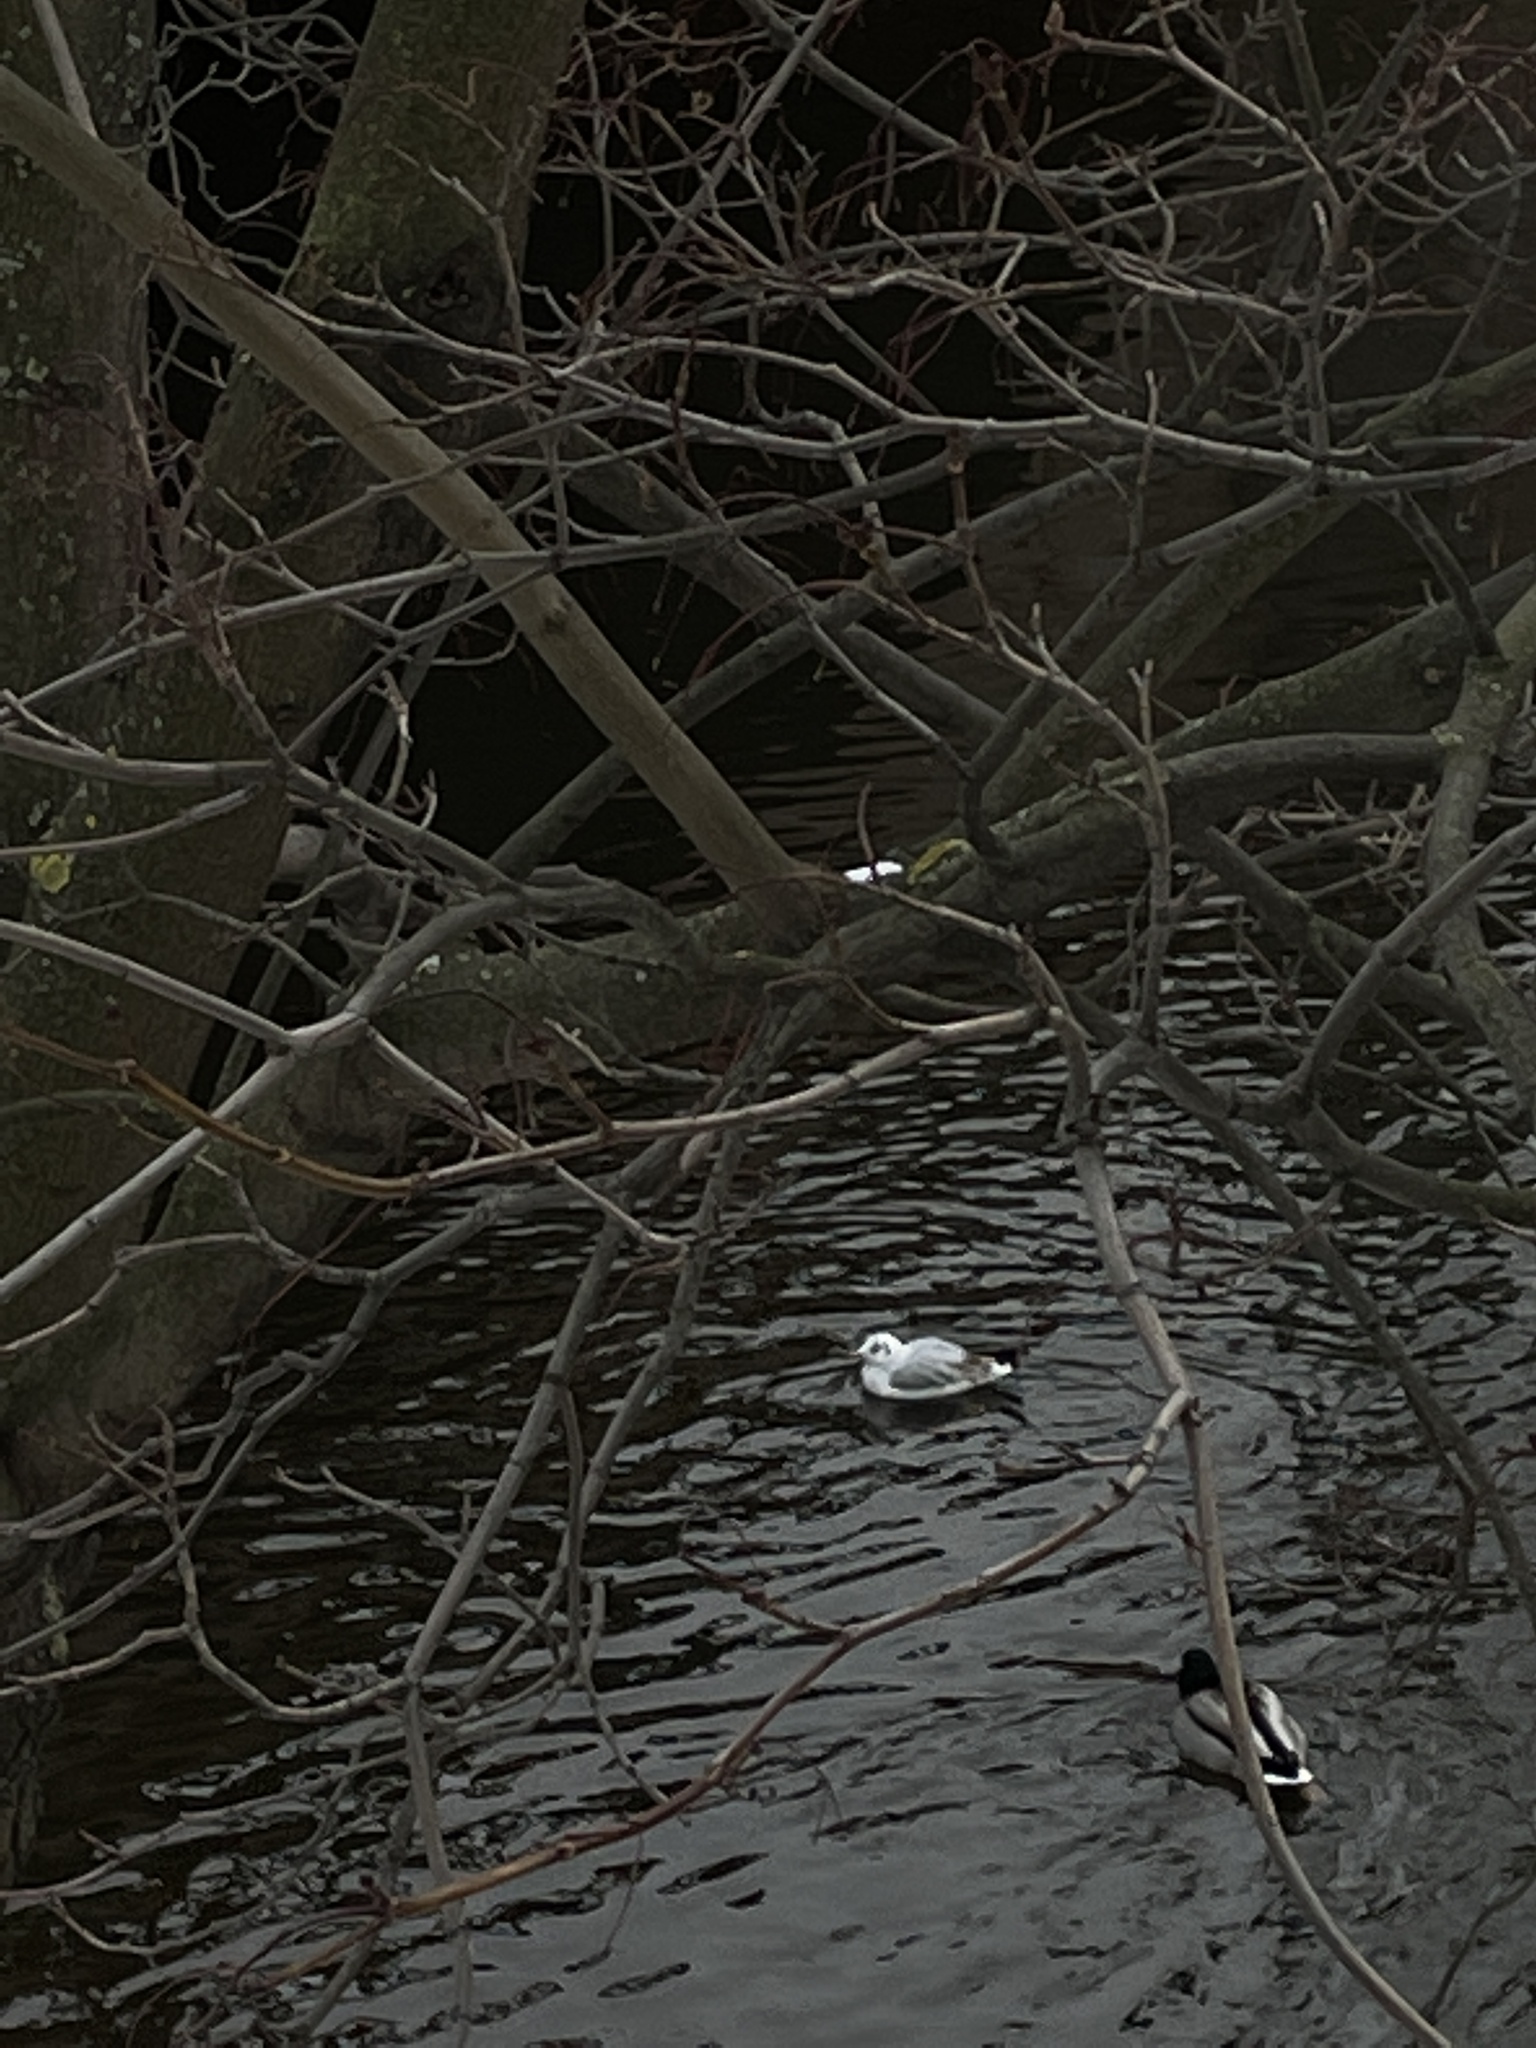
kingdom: Animalia
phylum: Chordata
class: Aves
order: Charadriiformes
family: Laridae
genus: Chroicocephalus
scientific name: Chroicocephalus ridibundus
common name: Black-headed gull
